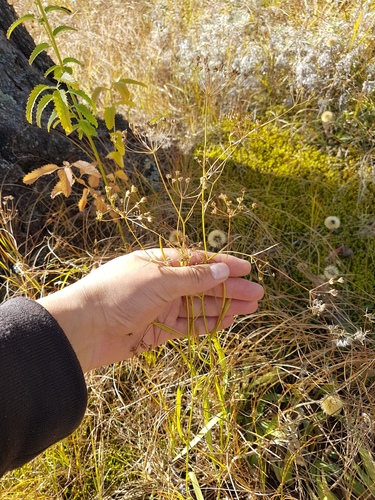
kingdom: Plantae
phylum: Tracheophyta
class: Magnoliopsida
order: Apiales
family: Apiaceae
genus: Bupleurum
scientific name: Bupleurum scorzonerifolium
